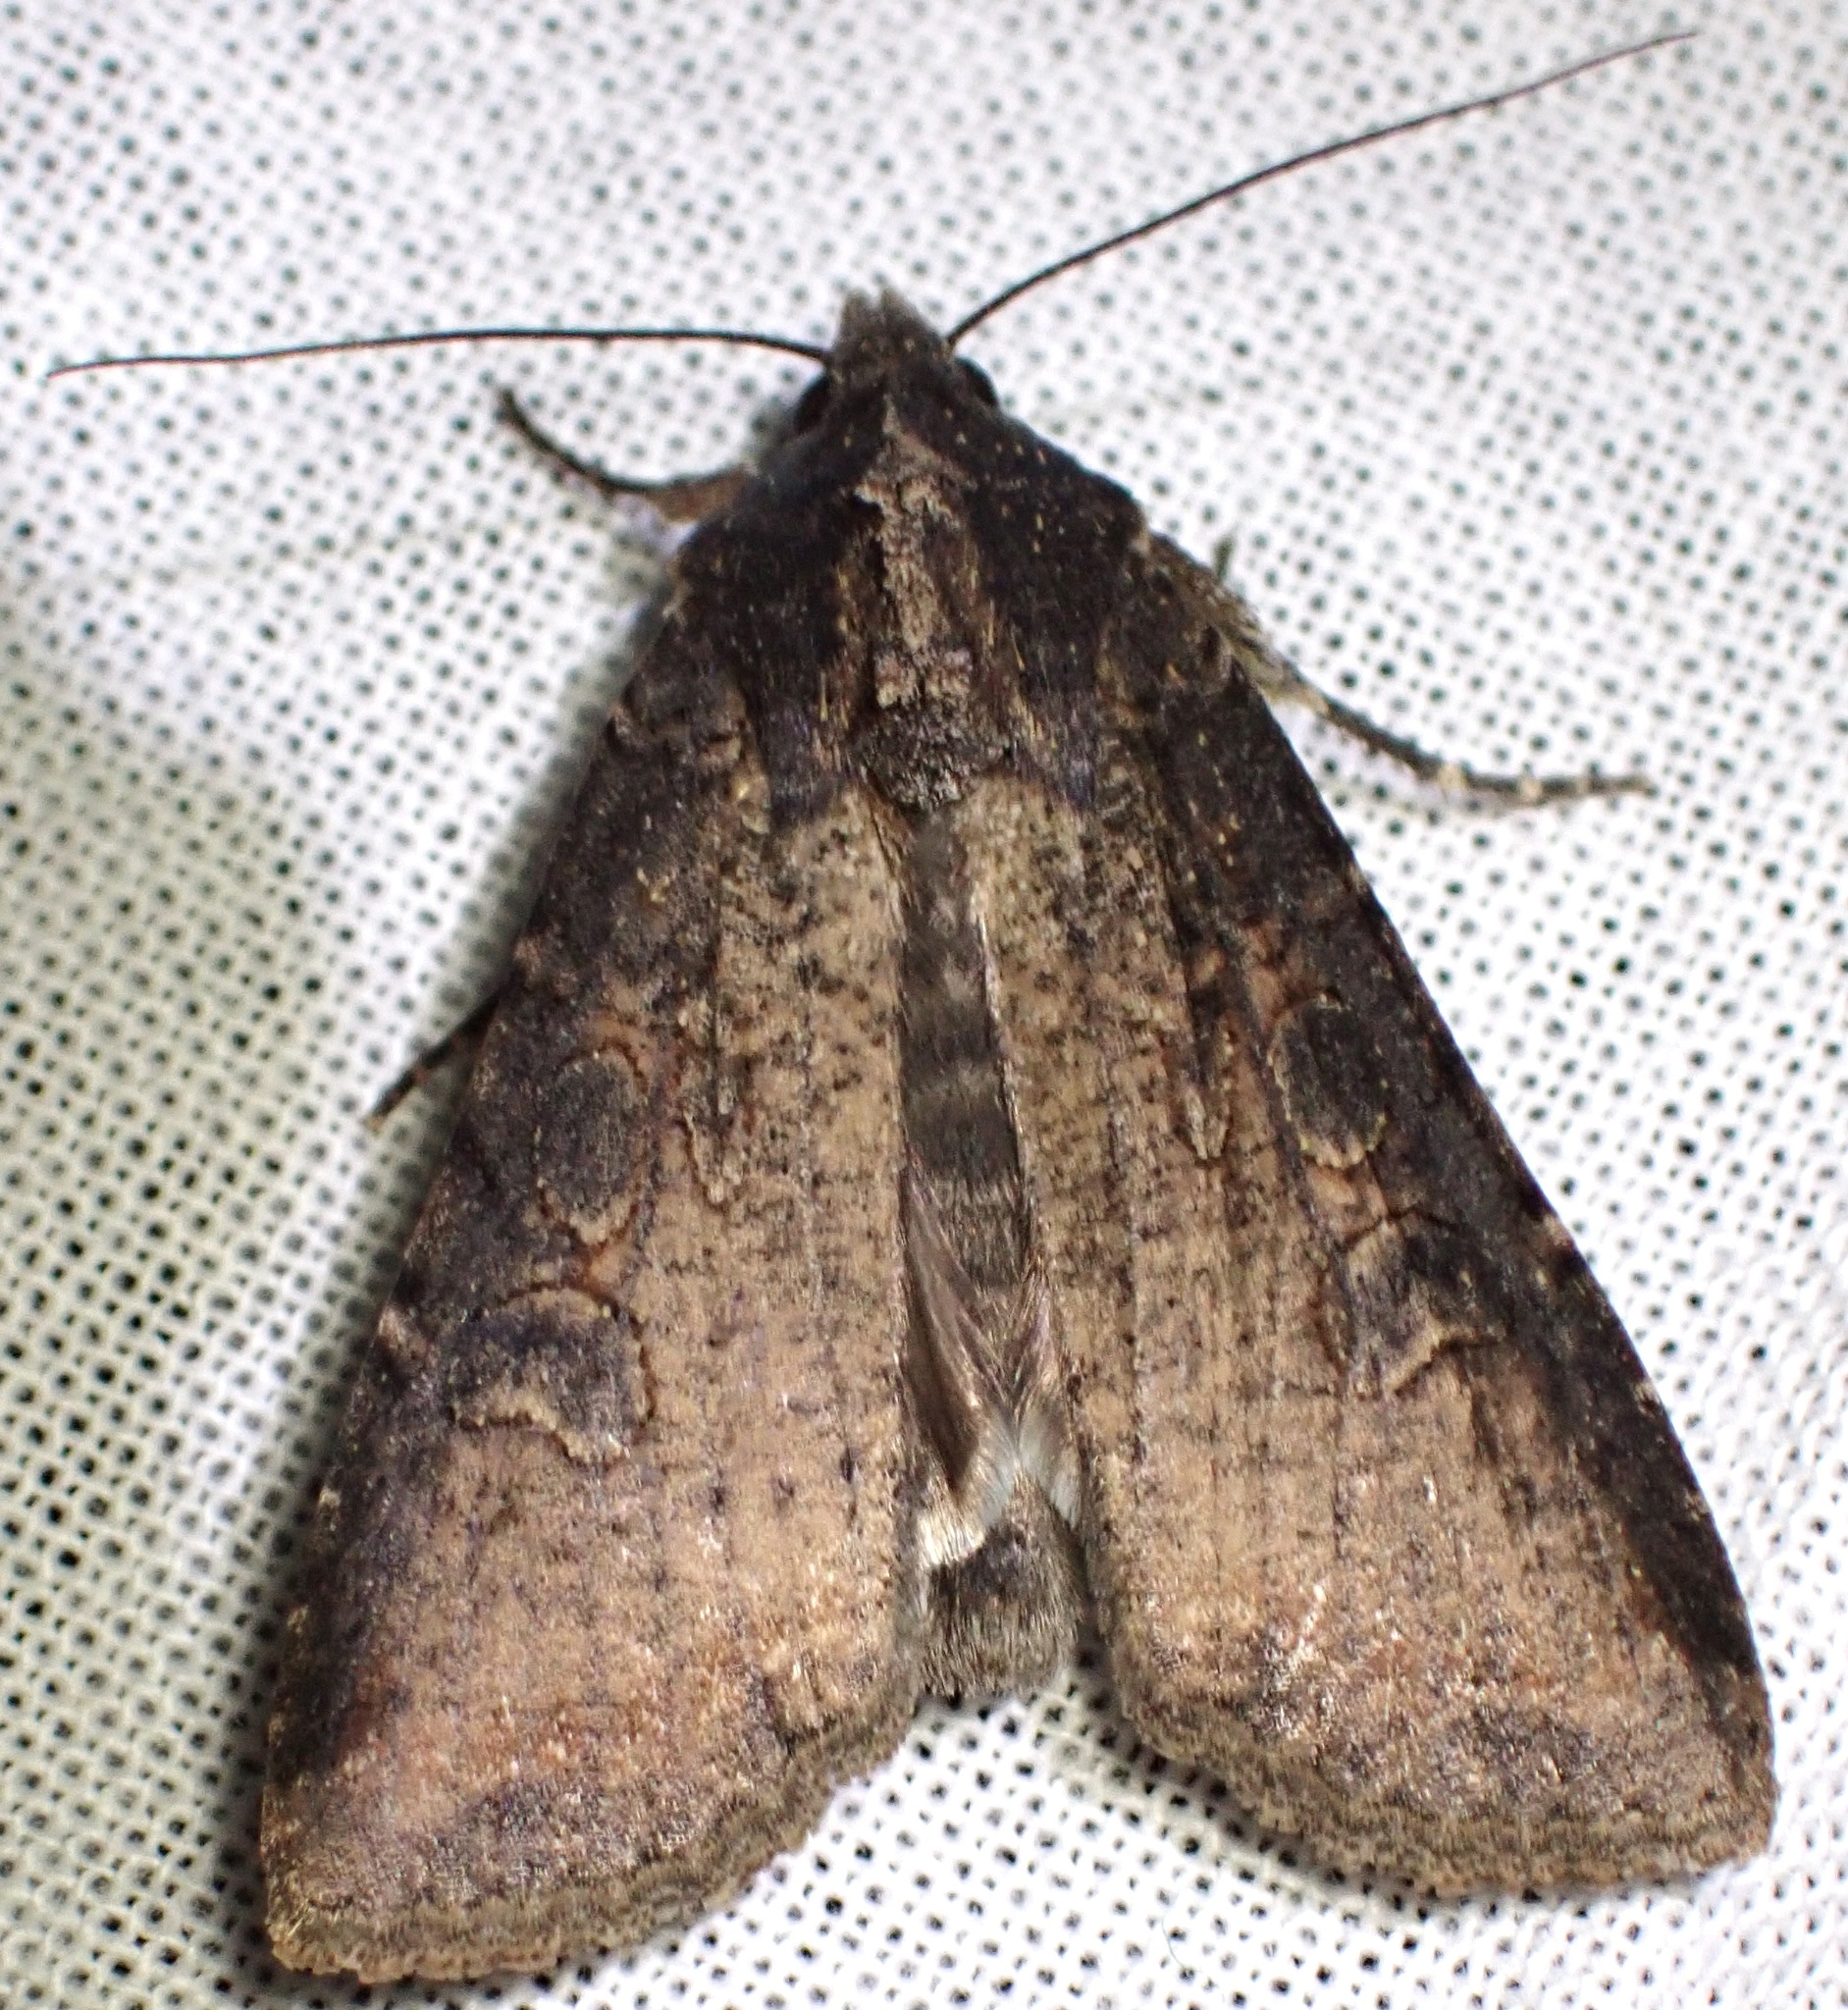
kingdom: Animalia
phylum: Arthropoda
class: Insecta
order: Lepidoptera
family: Noctuidae
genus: Peridroma
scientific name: Peridroma saucia
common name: Pearly underwing
